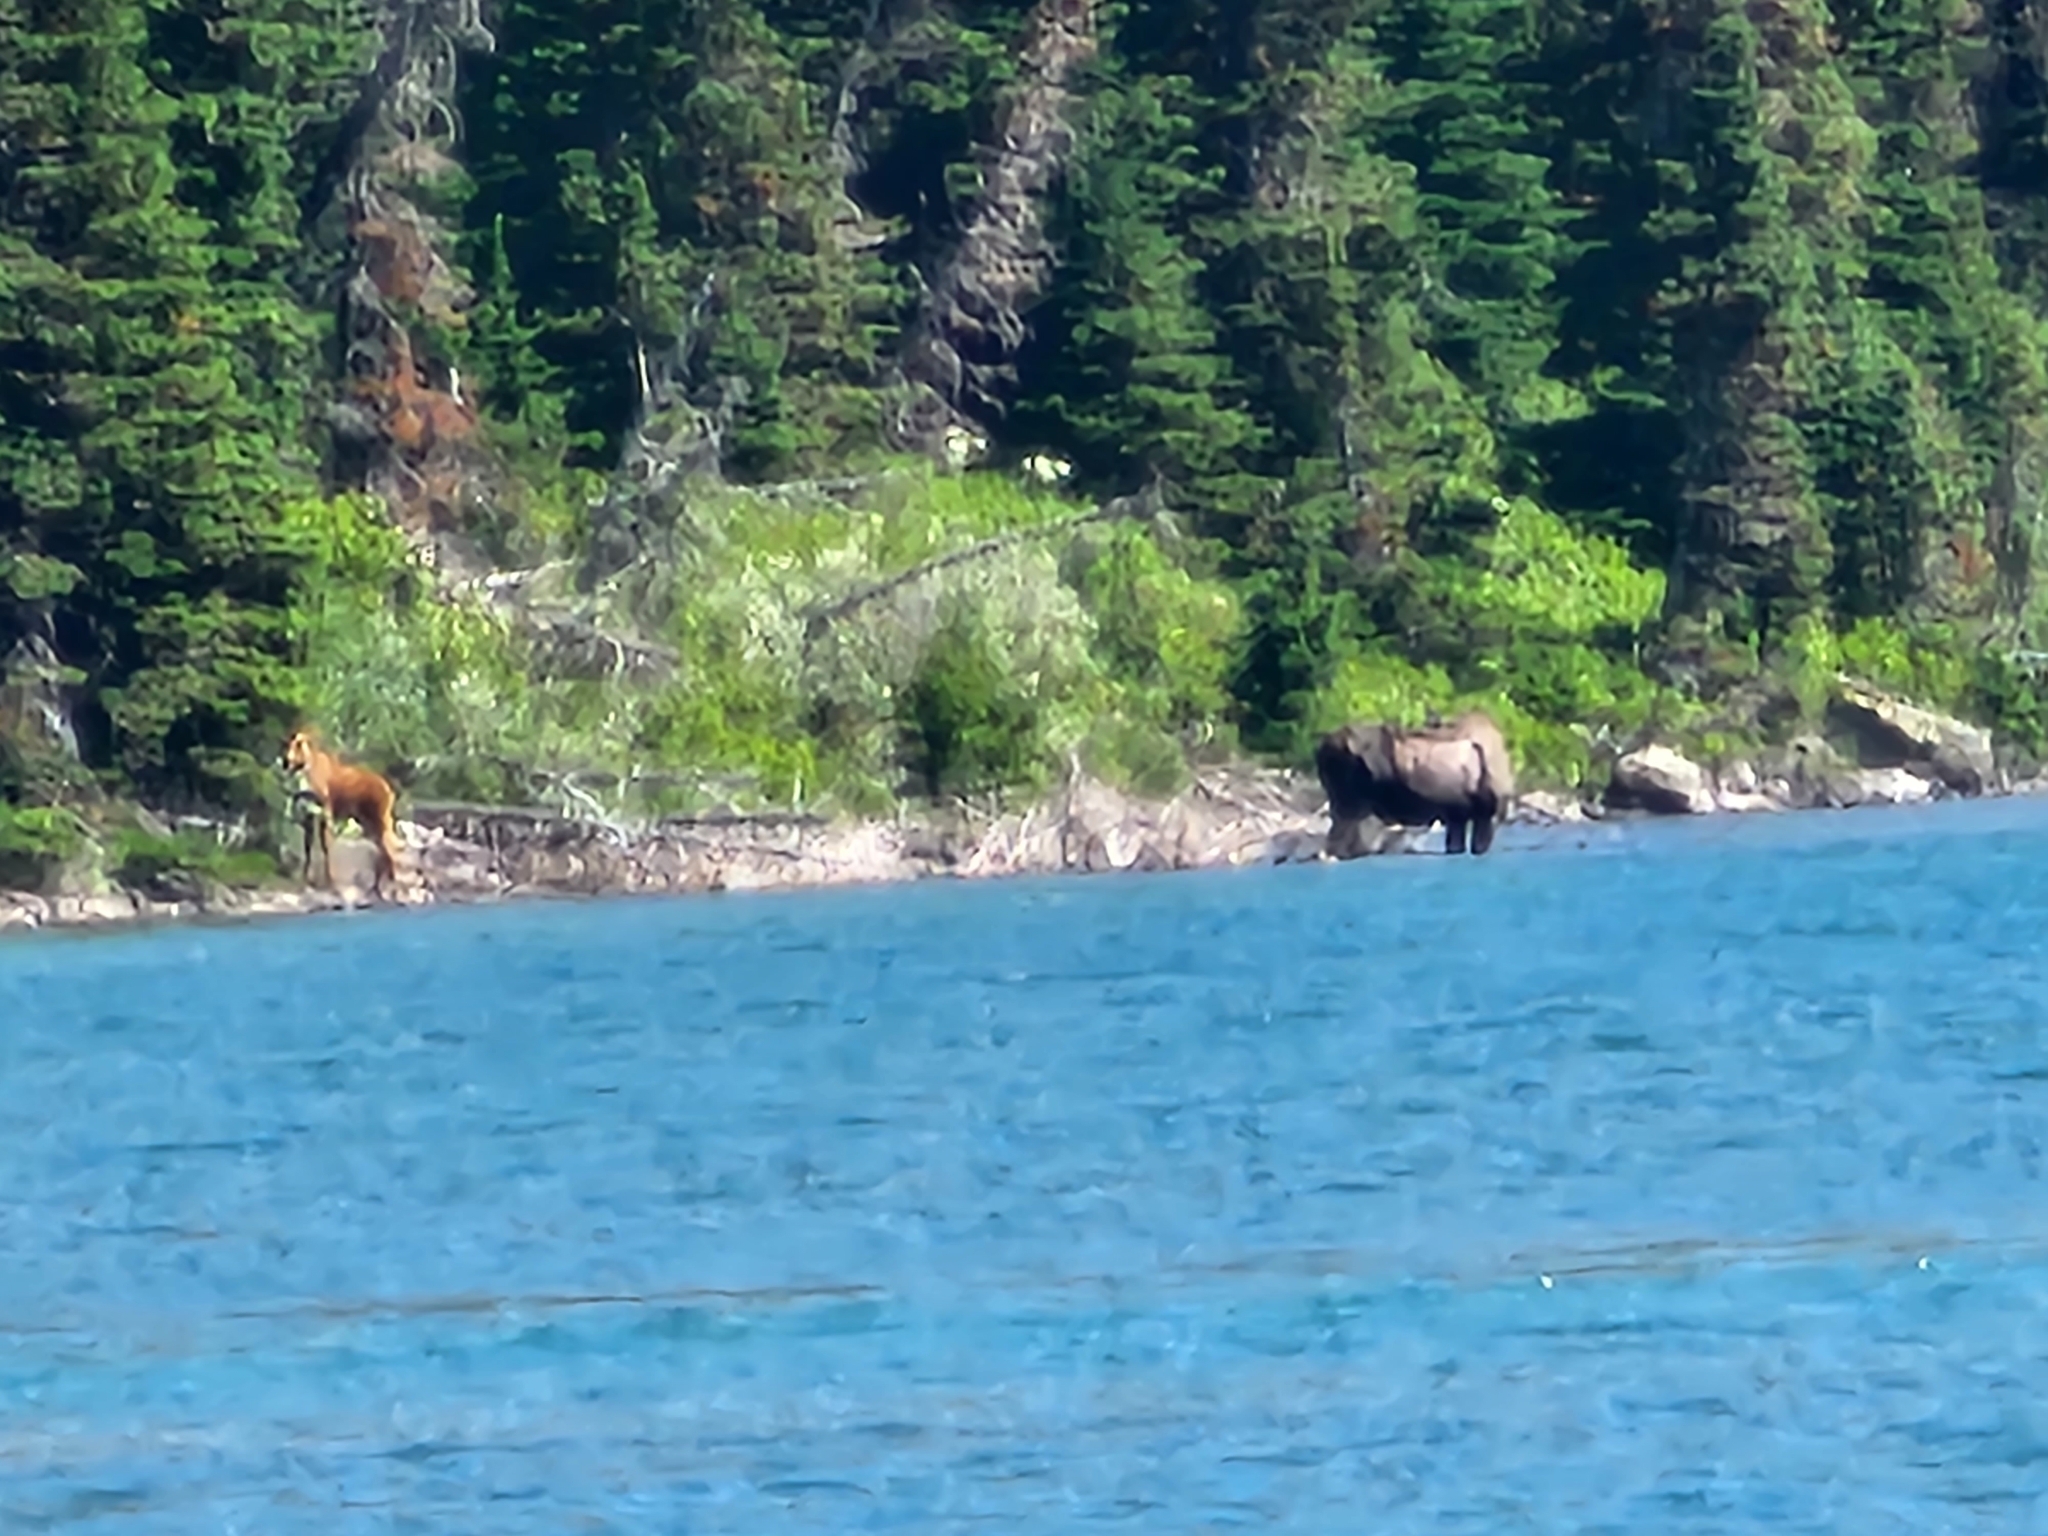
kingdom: Animalia
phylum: Chordata
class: Mammalia
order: Artiodactyla
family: Cervidae
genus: Alces
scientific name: Alces americanus
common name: Moose
